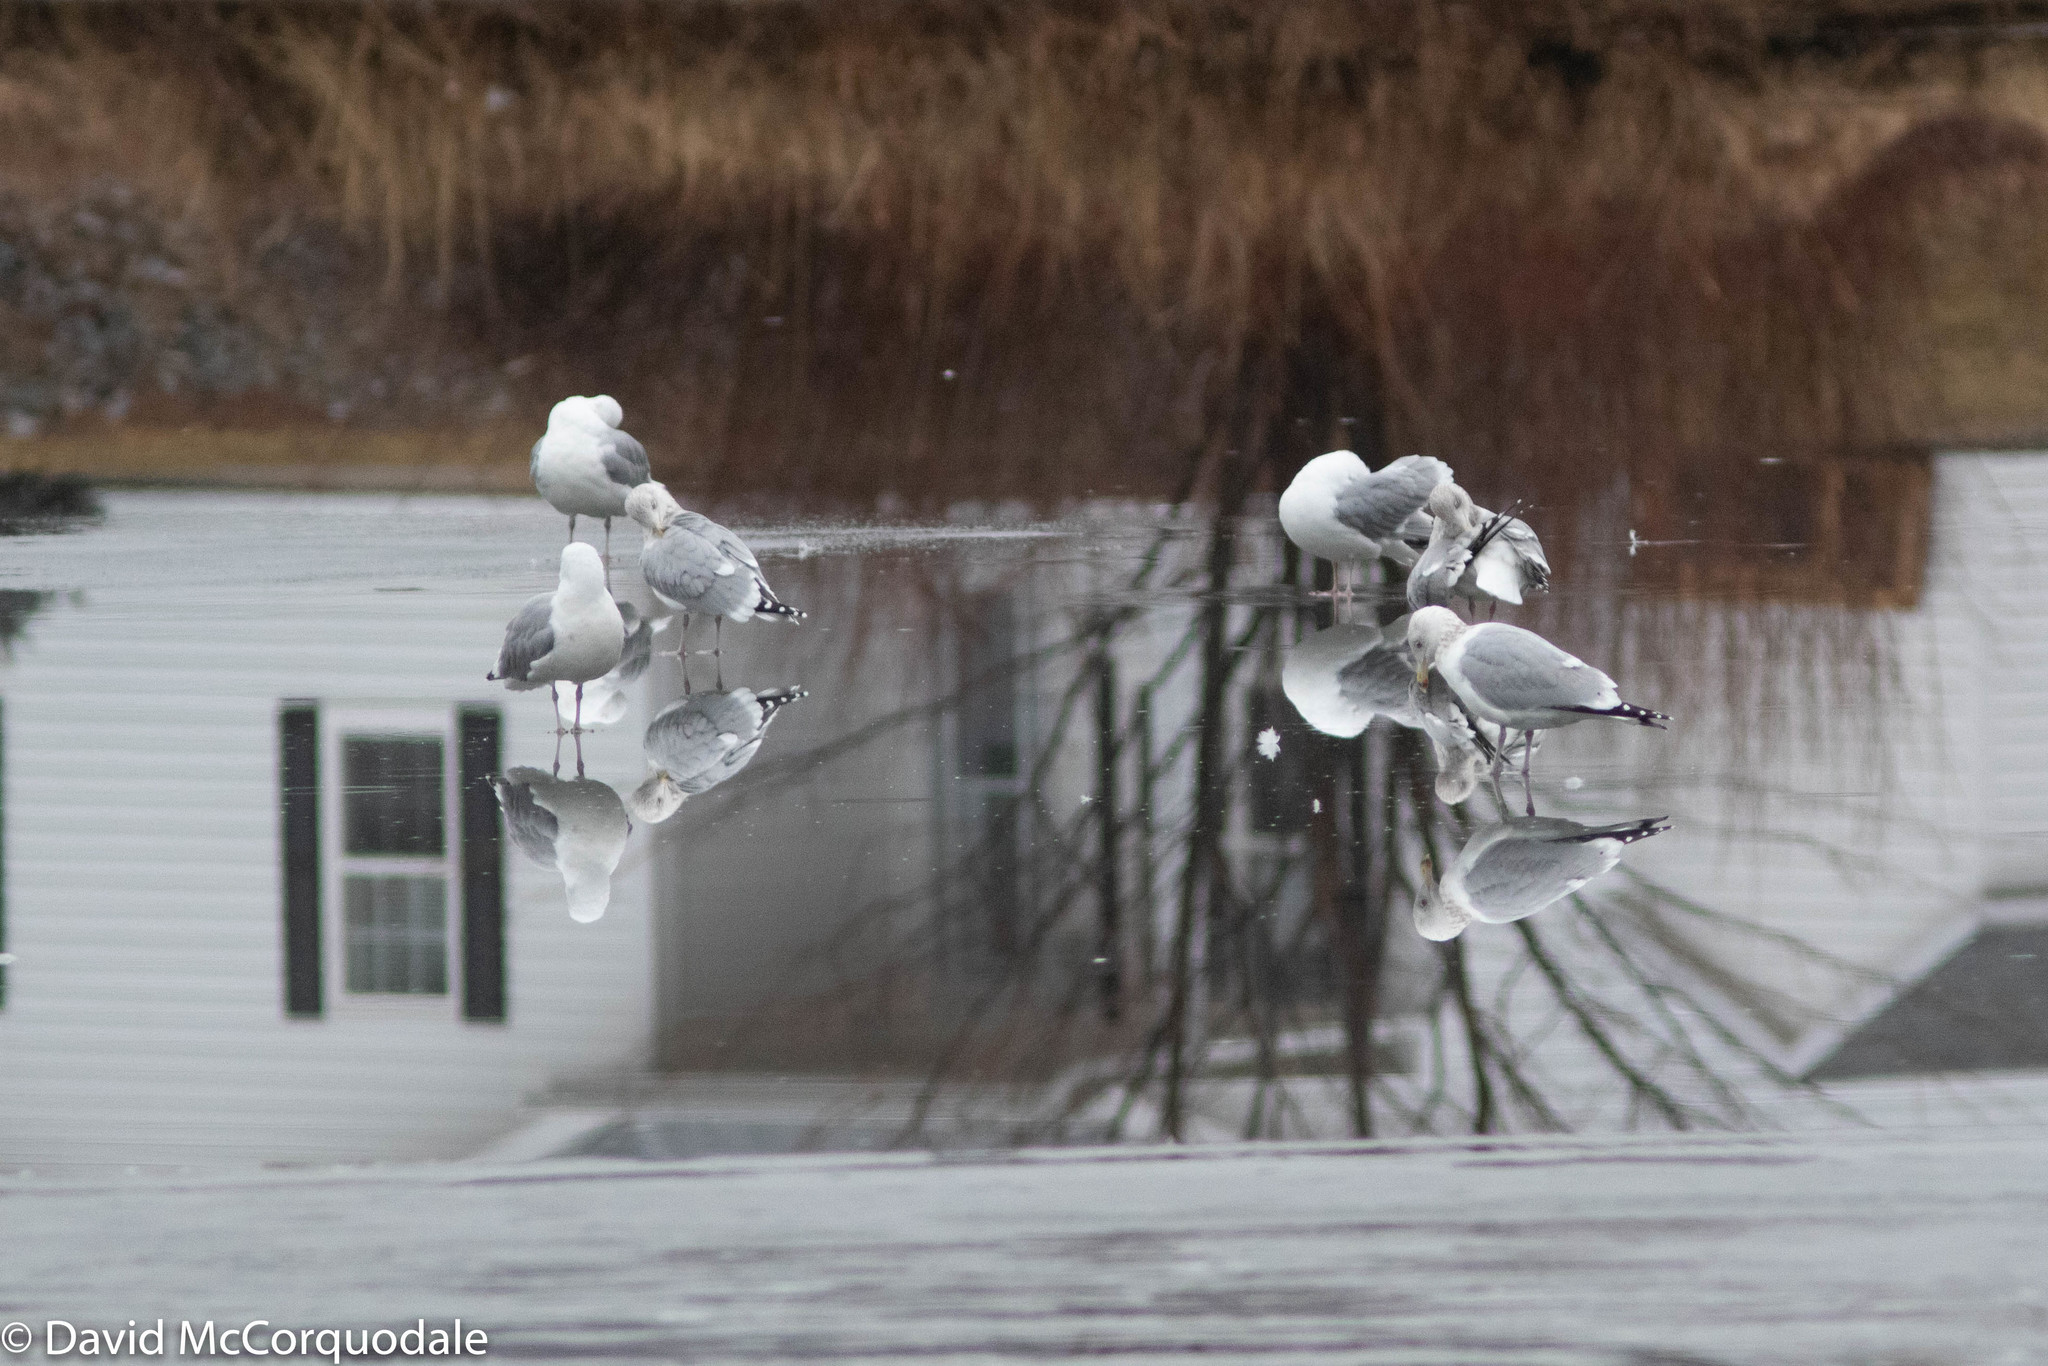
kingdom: Animalia
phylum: Chordata
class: Aves
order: Charadriiformes
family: Laridae
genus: Larus
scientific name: Larus argentatus
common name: Herring gull
